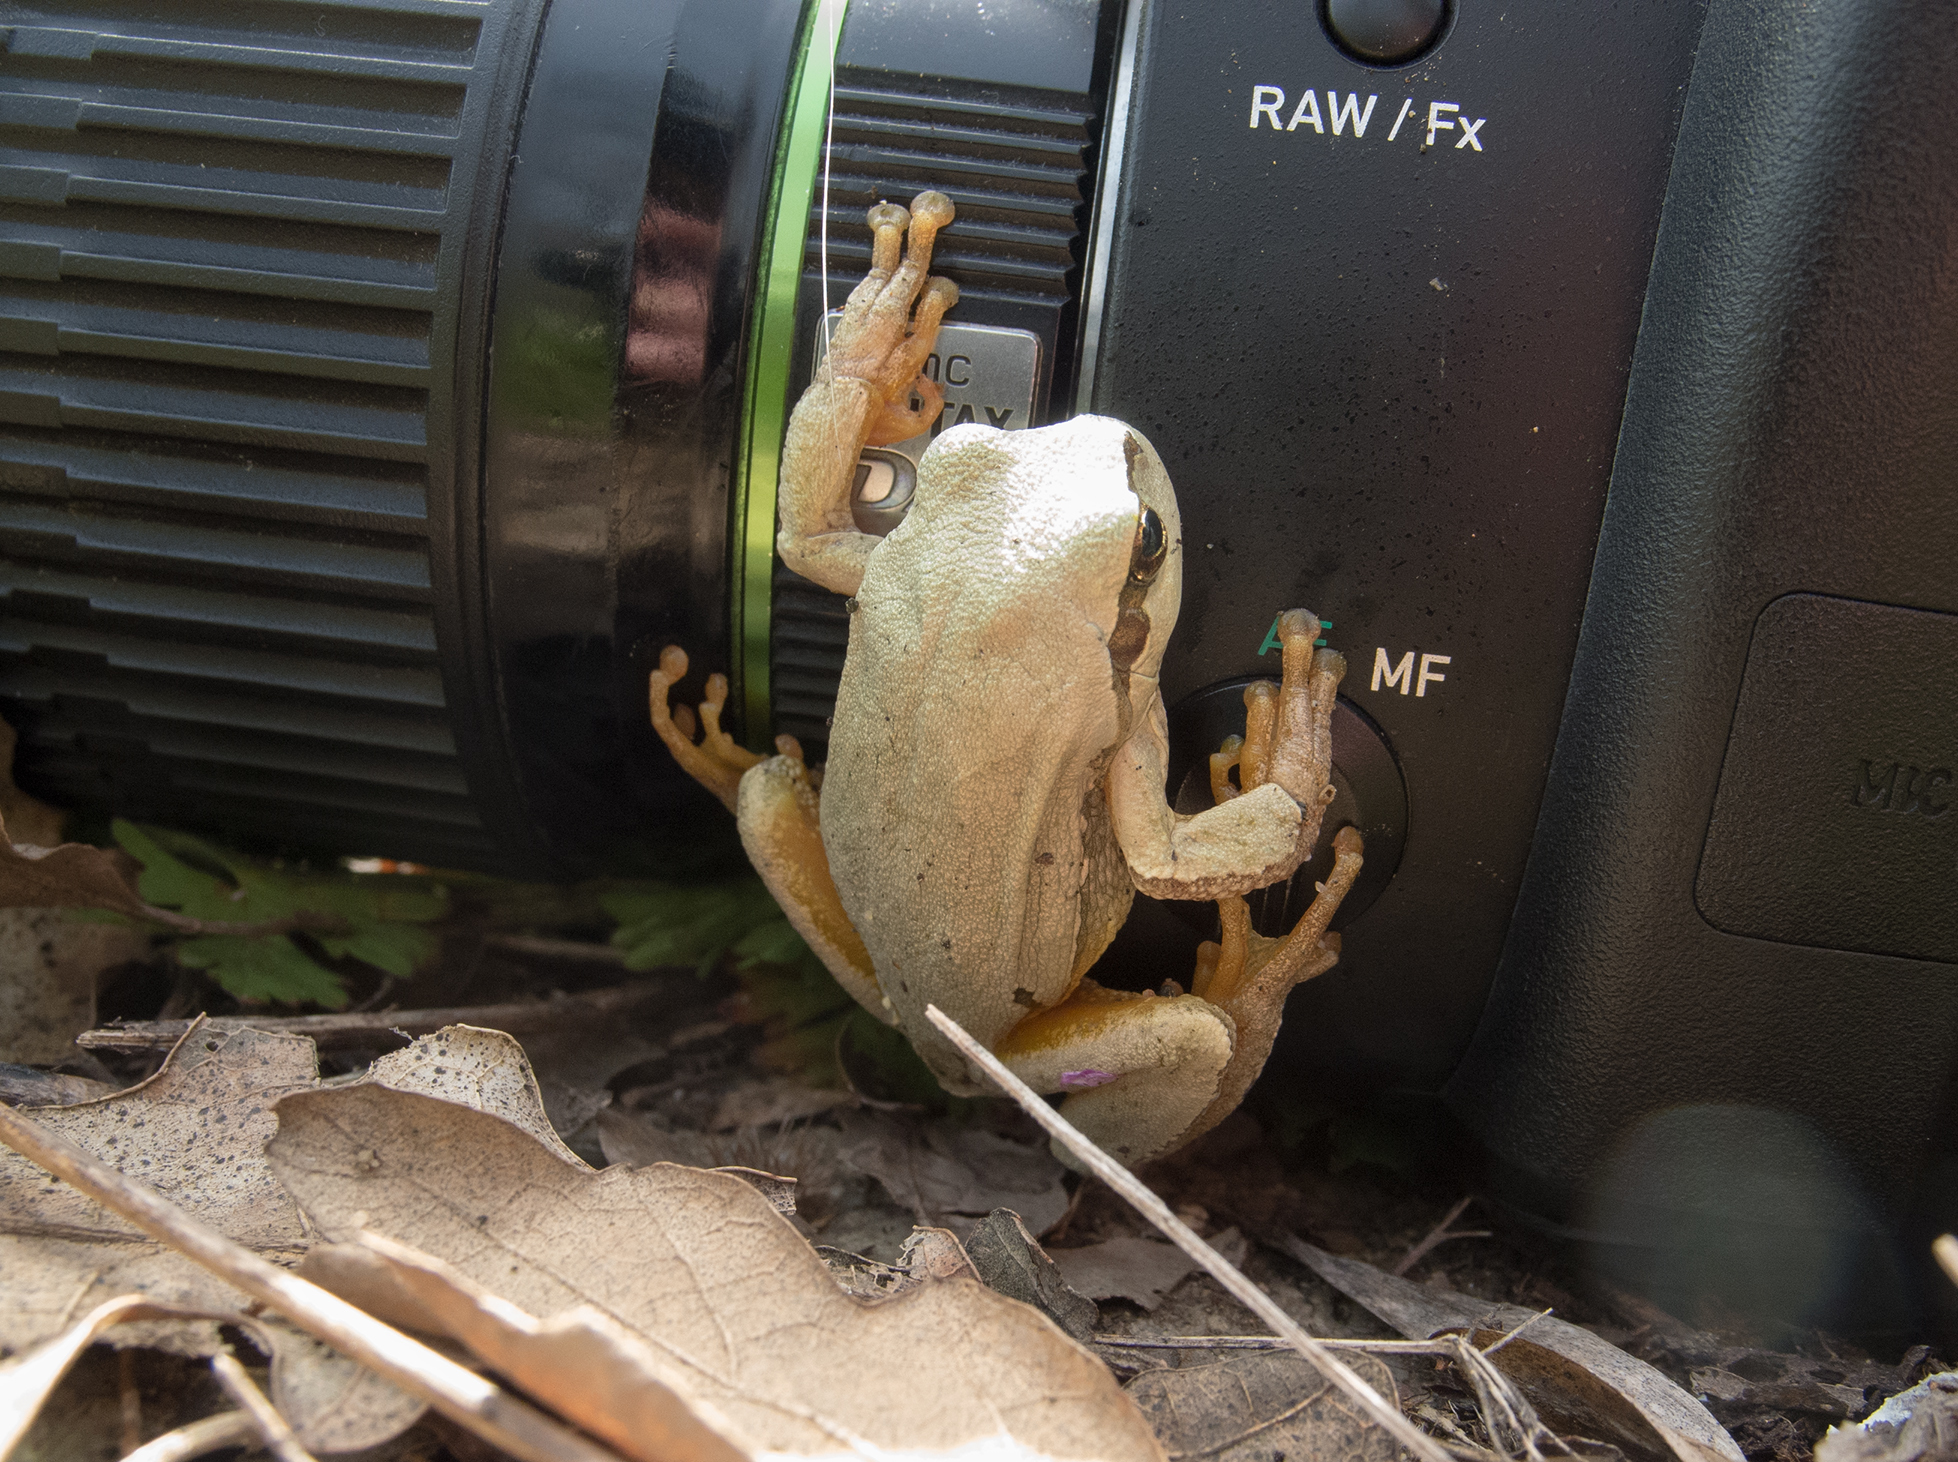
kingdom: Animalia
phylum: Chordata
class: Amphibia
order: Anura
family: Hylidae
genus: Hyla
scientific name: Hyla orientalis
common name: Caucasian treefrog
